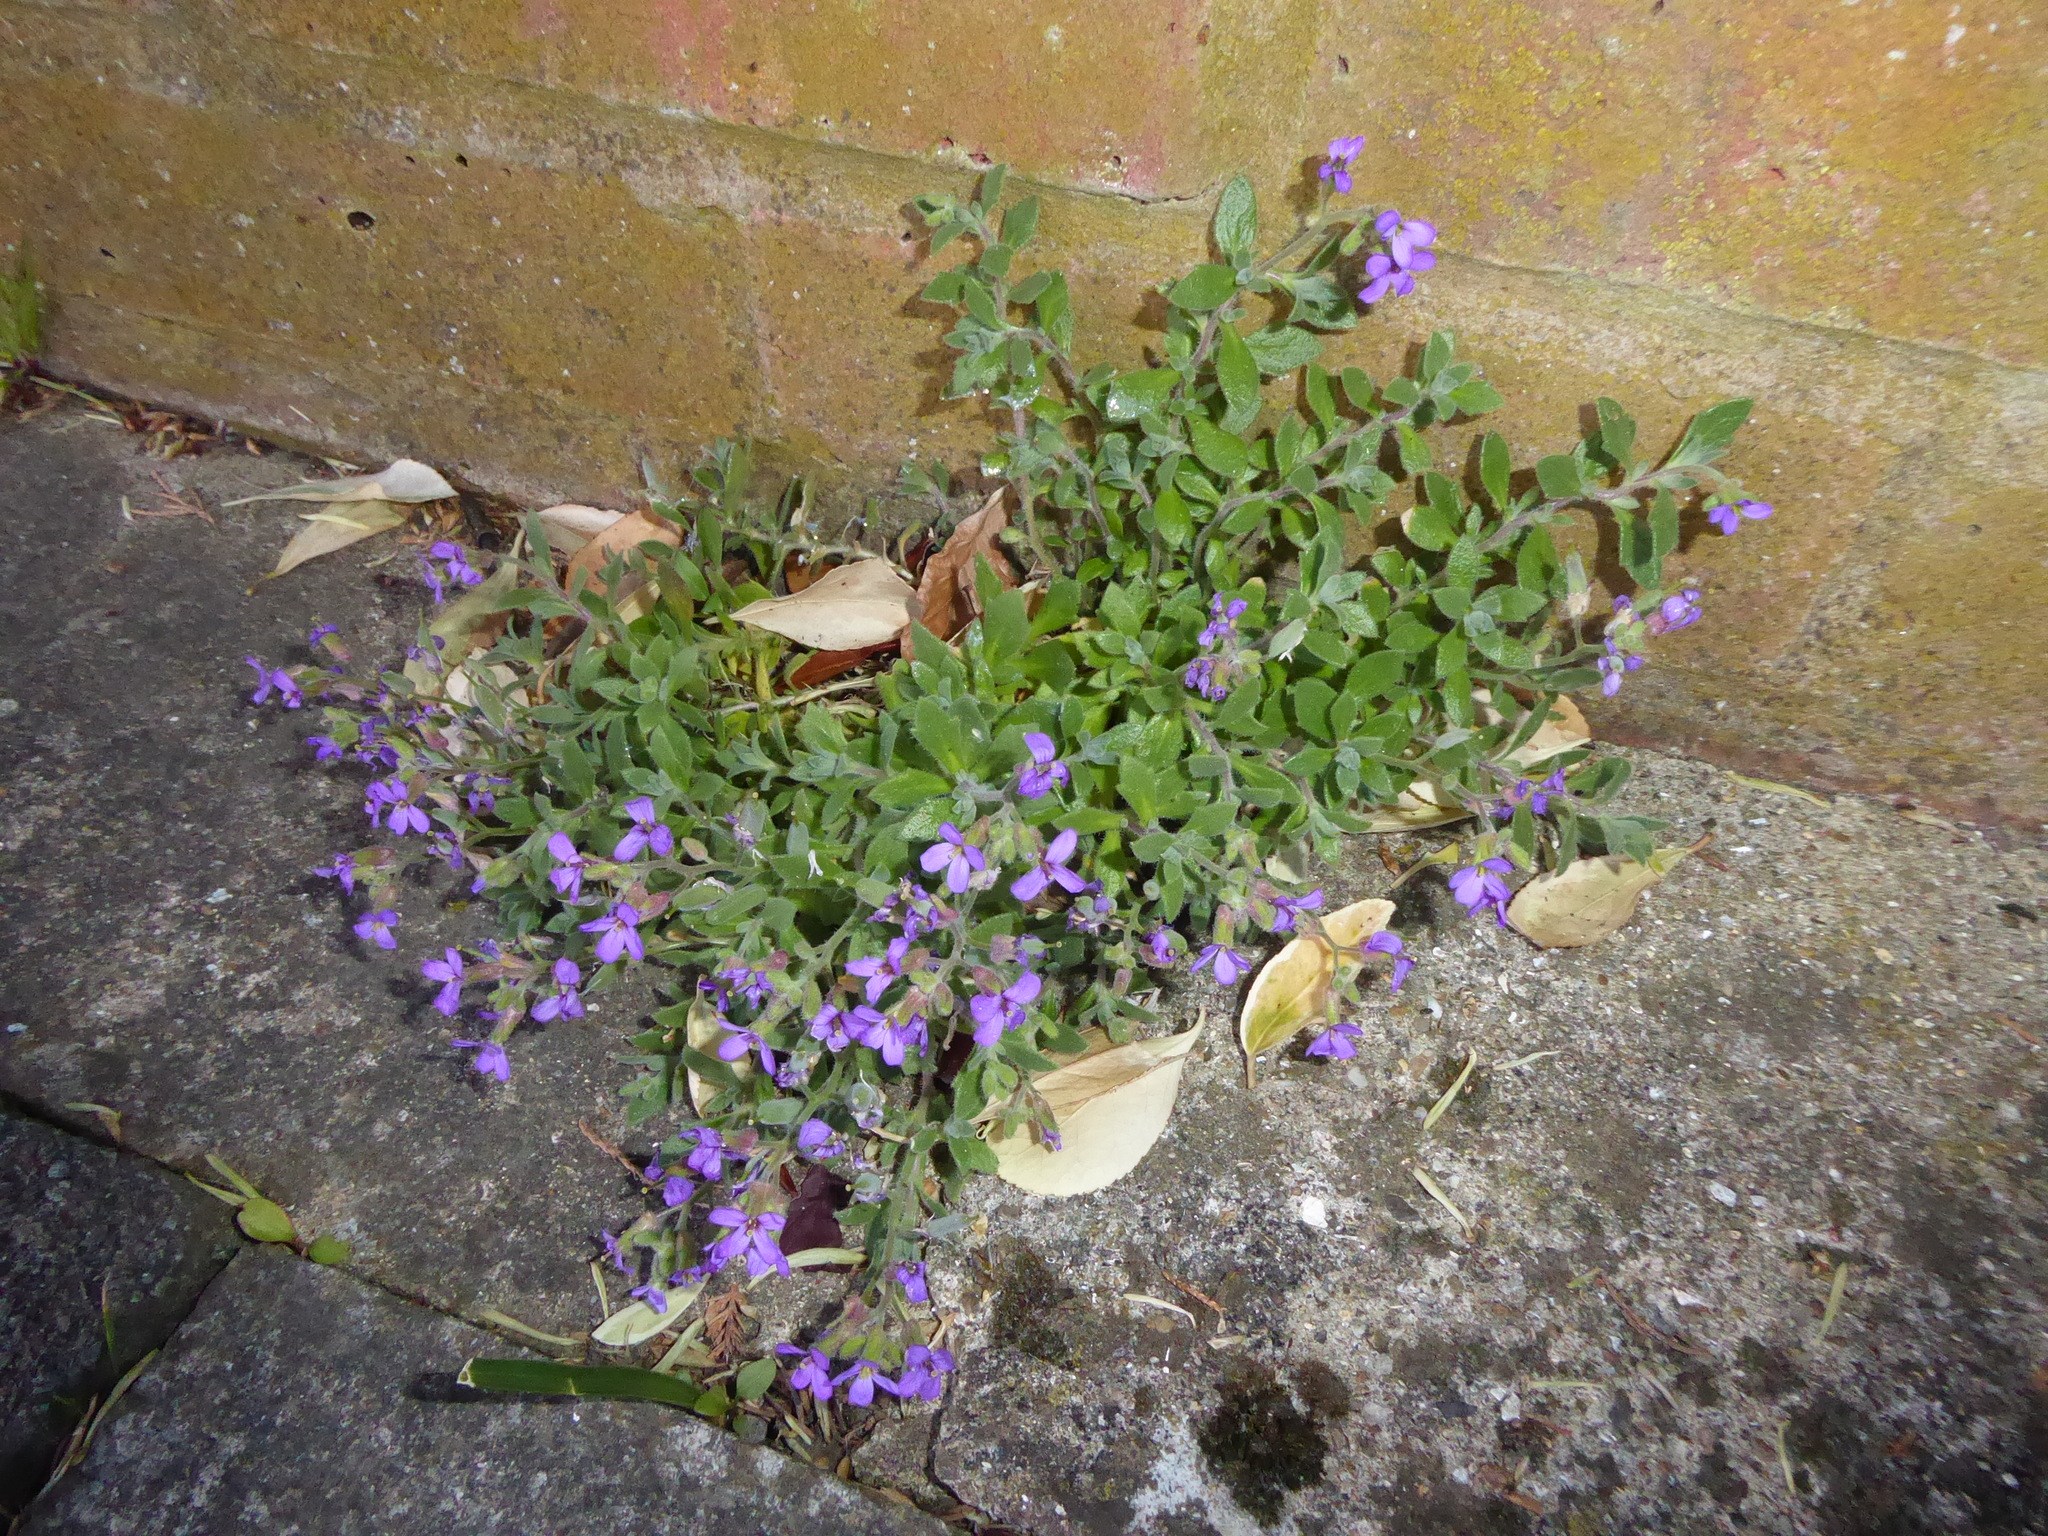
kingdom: Plantae
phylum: Tracheophyta
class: Magnoliopsida
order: Brassicales
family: Brassicaceae
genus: Aubrieta
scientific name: Aubrieta deltoidea
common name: Aubretia
